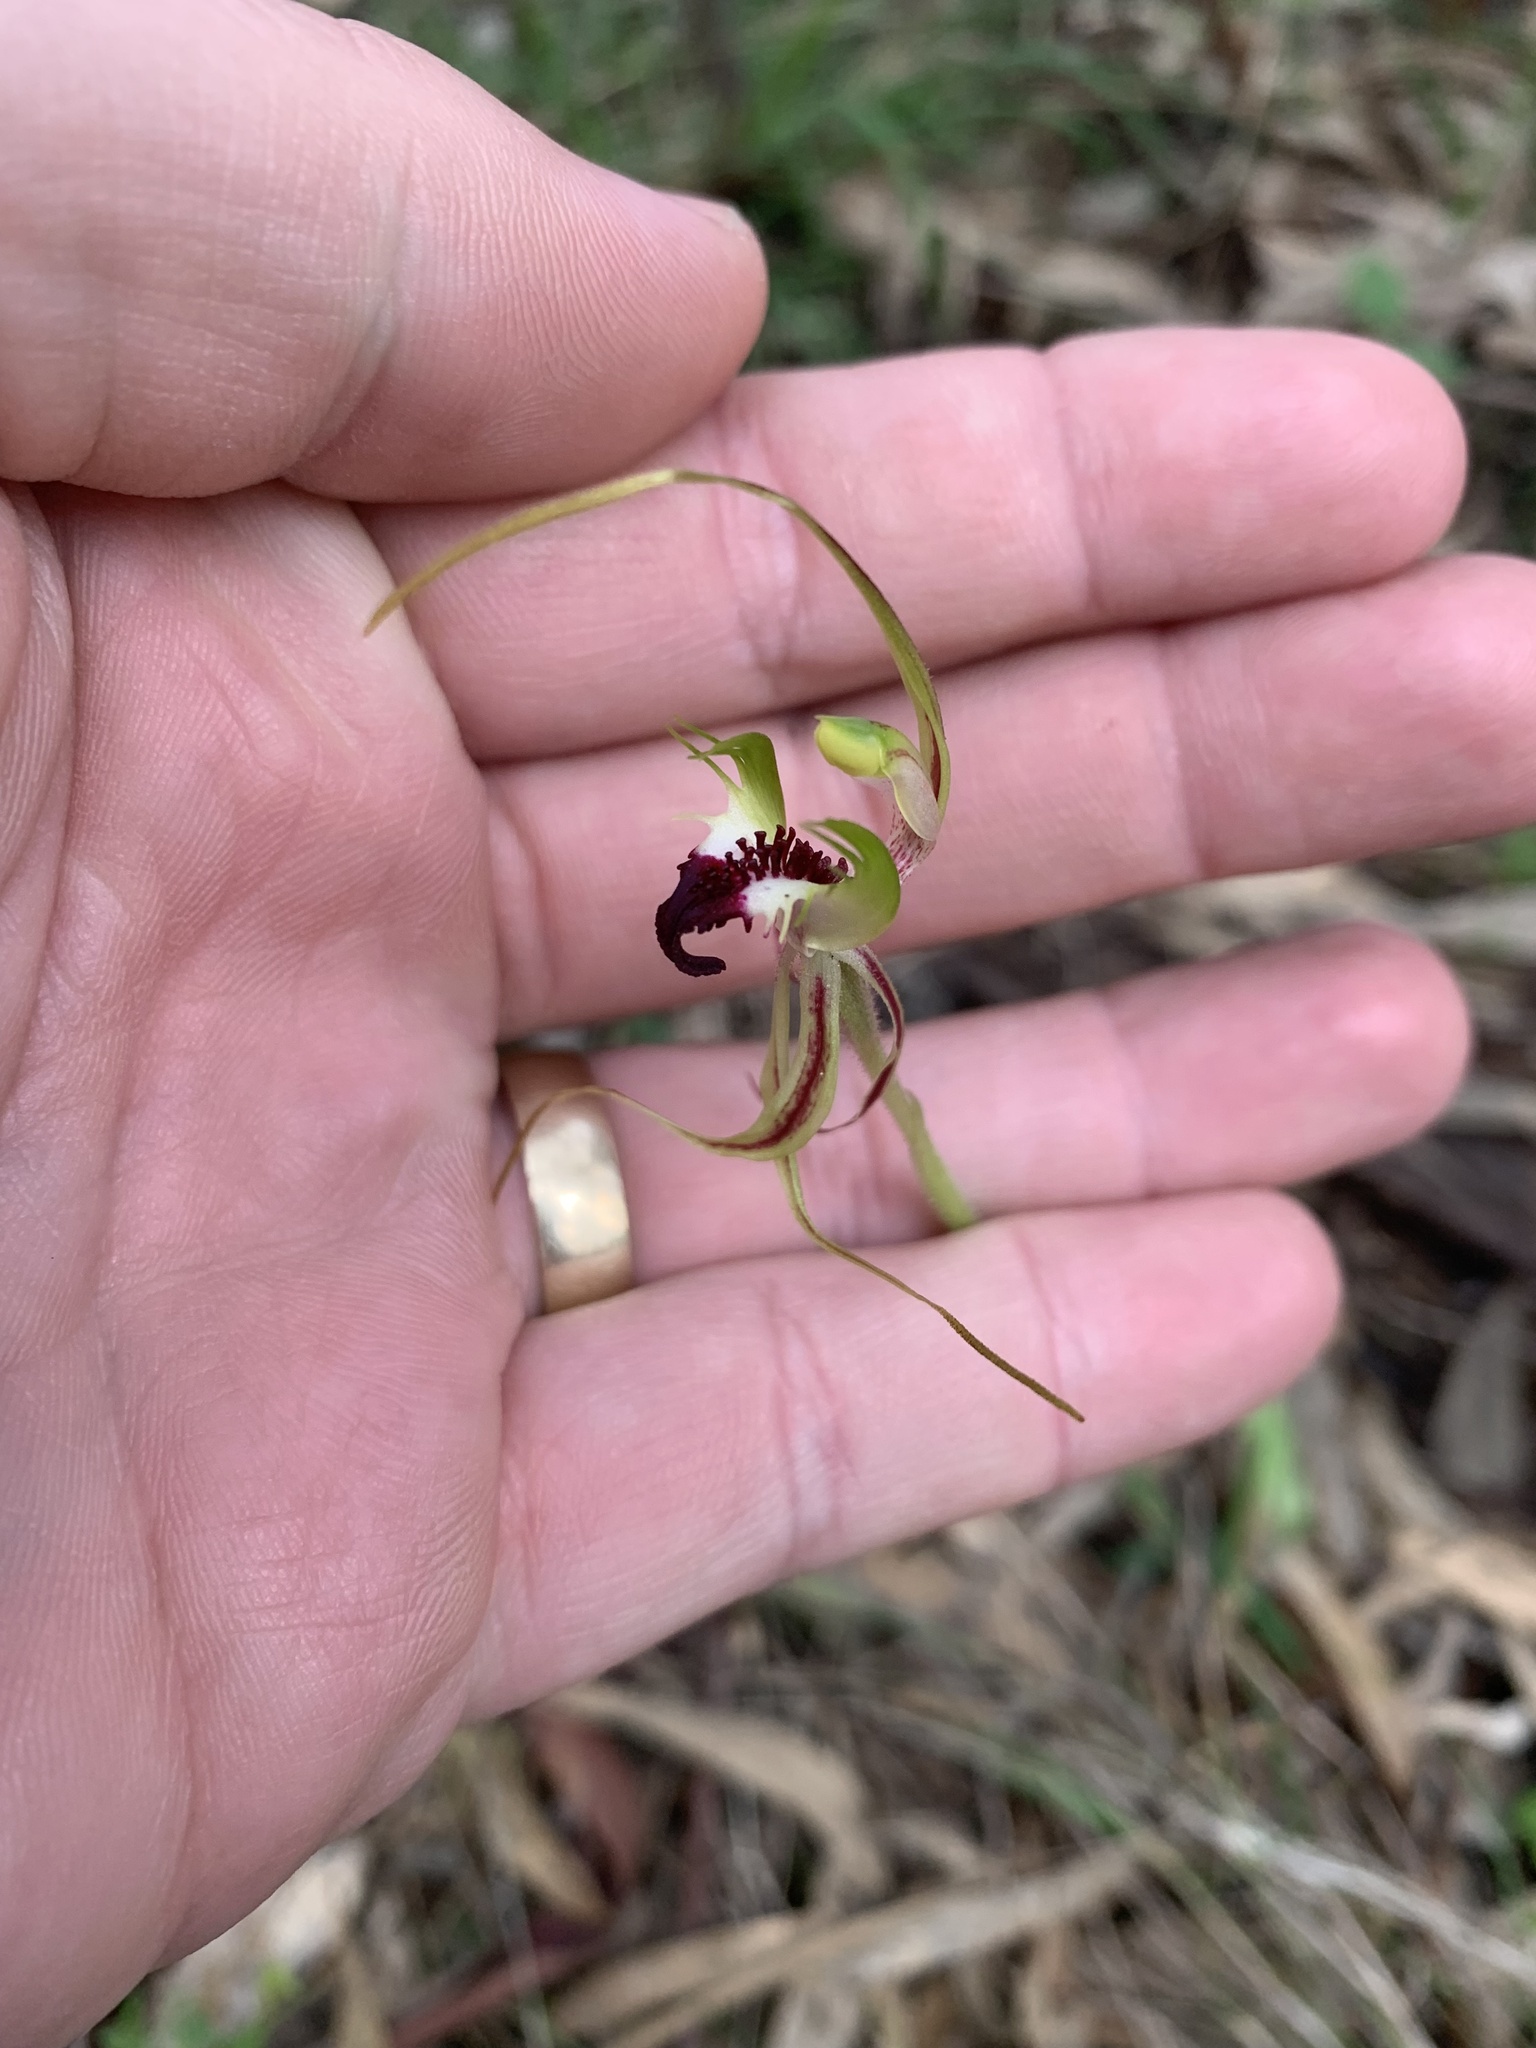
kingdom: Plantae
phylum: Tracheophyta
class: Liliopsida
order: Asparagales
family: Orchidaceae
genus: Caladenia
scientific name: Caladenia tentaculata
